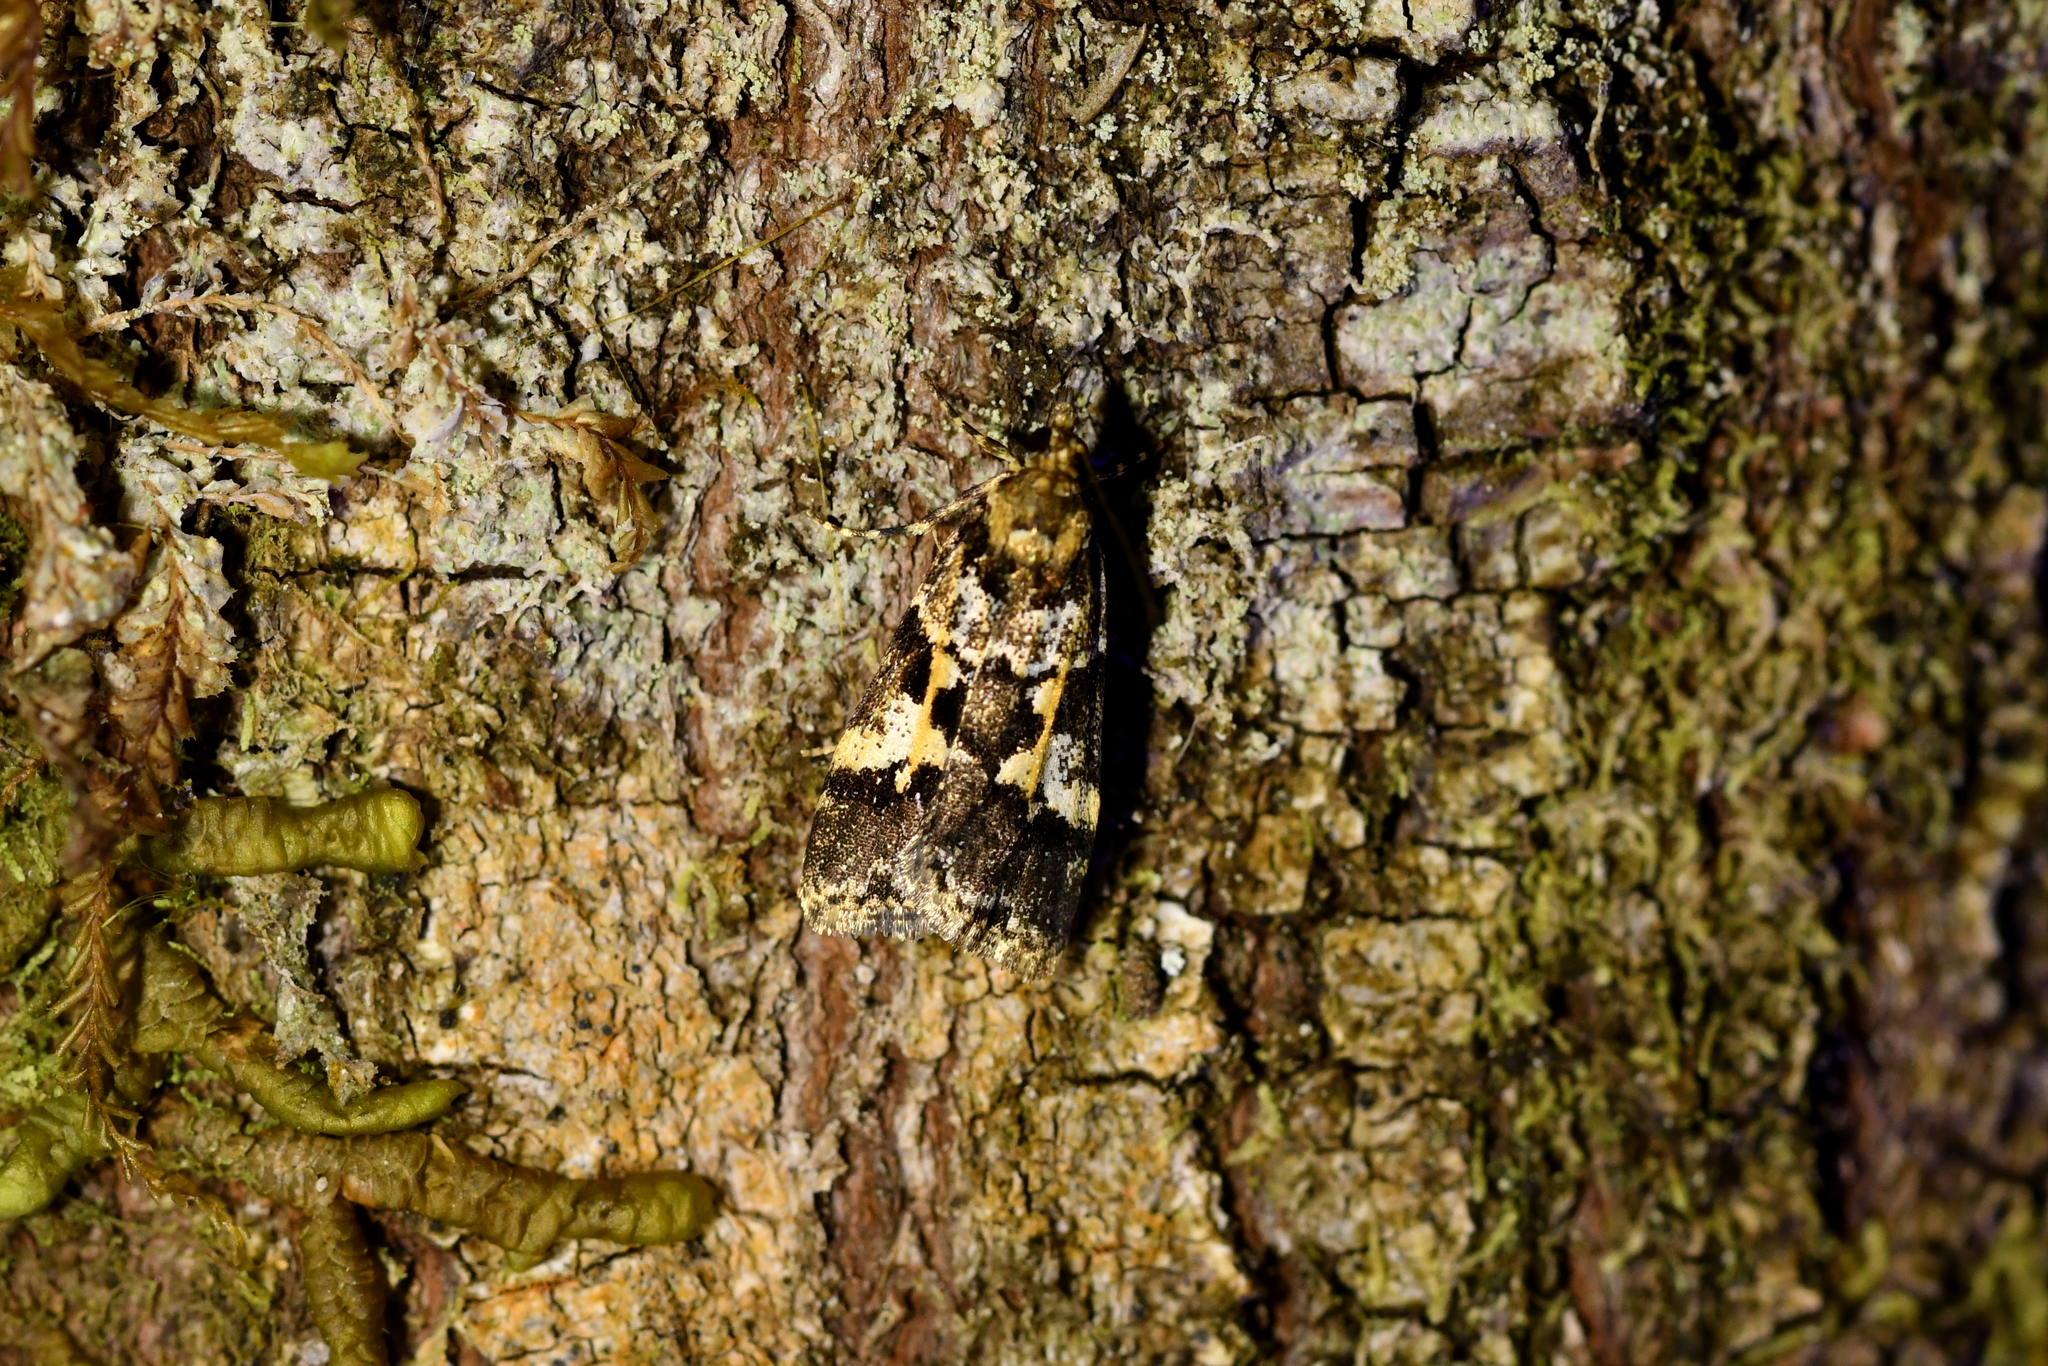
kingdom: Animalia
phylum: Arthropoda
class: Insecta
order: Lepidoptera
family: Crambidae
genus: Eudonia
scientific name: Eudonia characta
